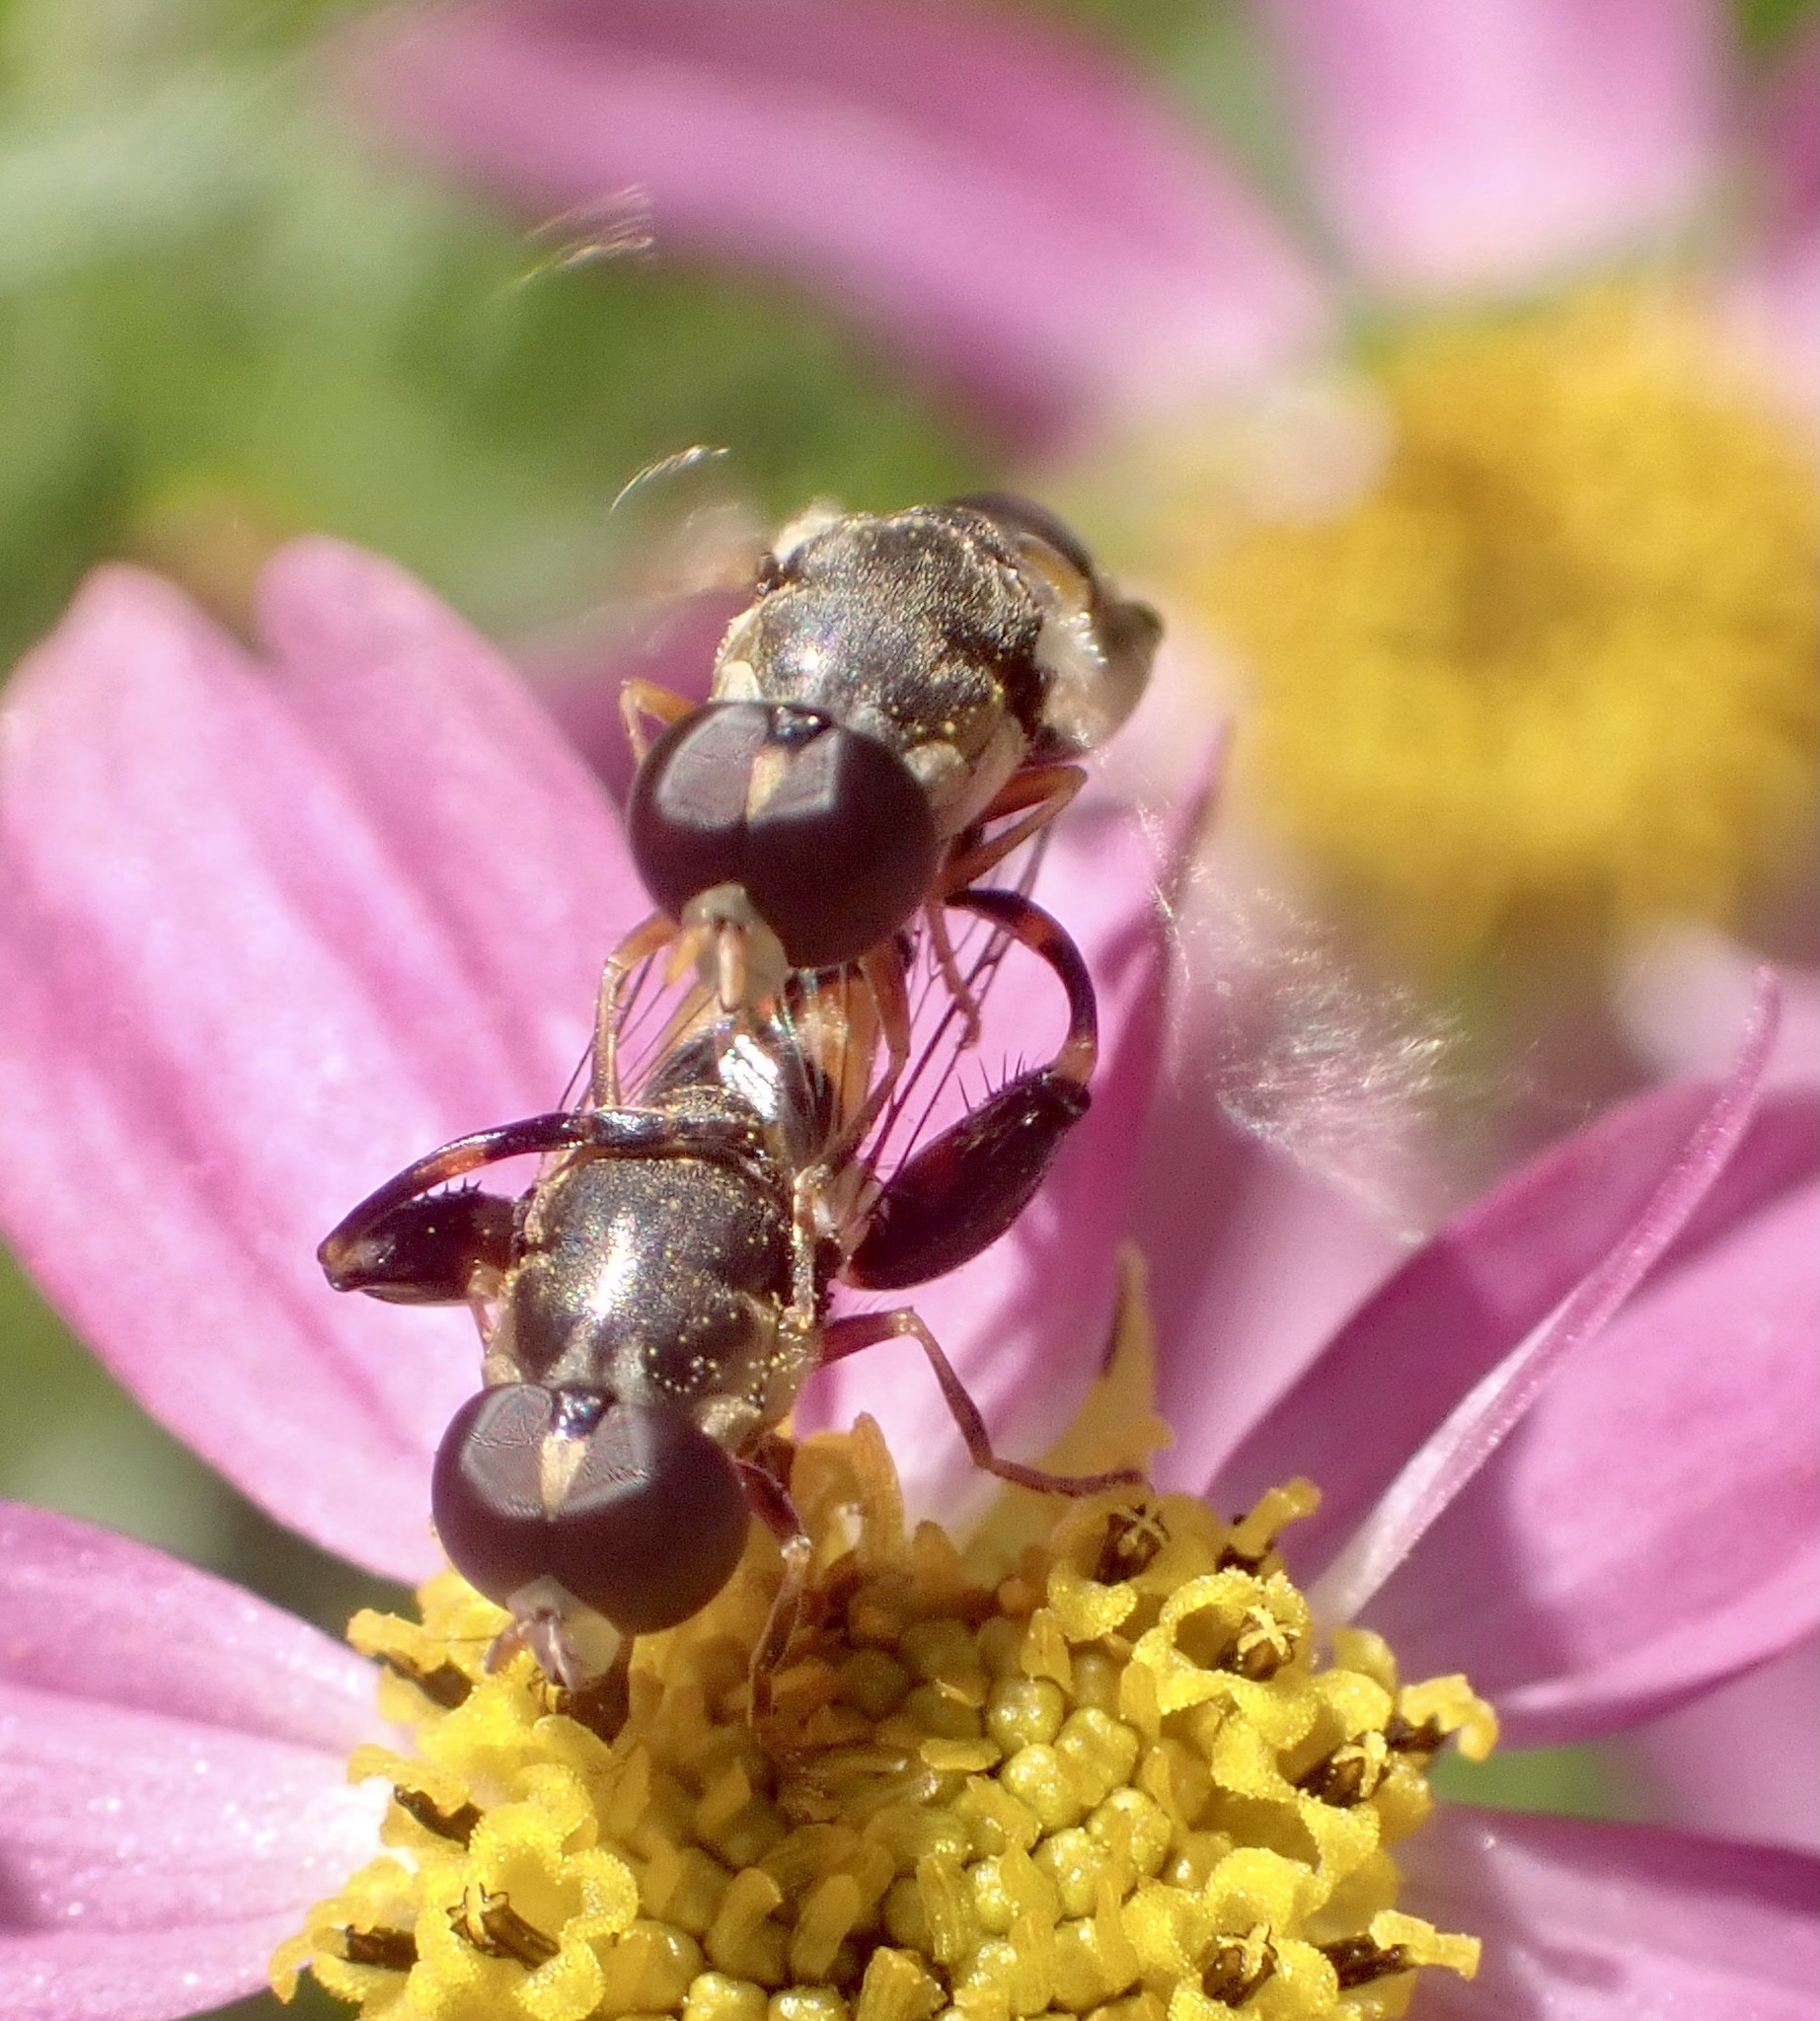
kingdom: Animalia
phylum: Arthropoda
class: Insecta
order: Diptera
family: Syrphidae
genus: Syritta
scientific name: Syritta pipiens
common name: Hover fly
